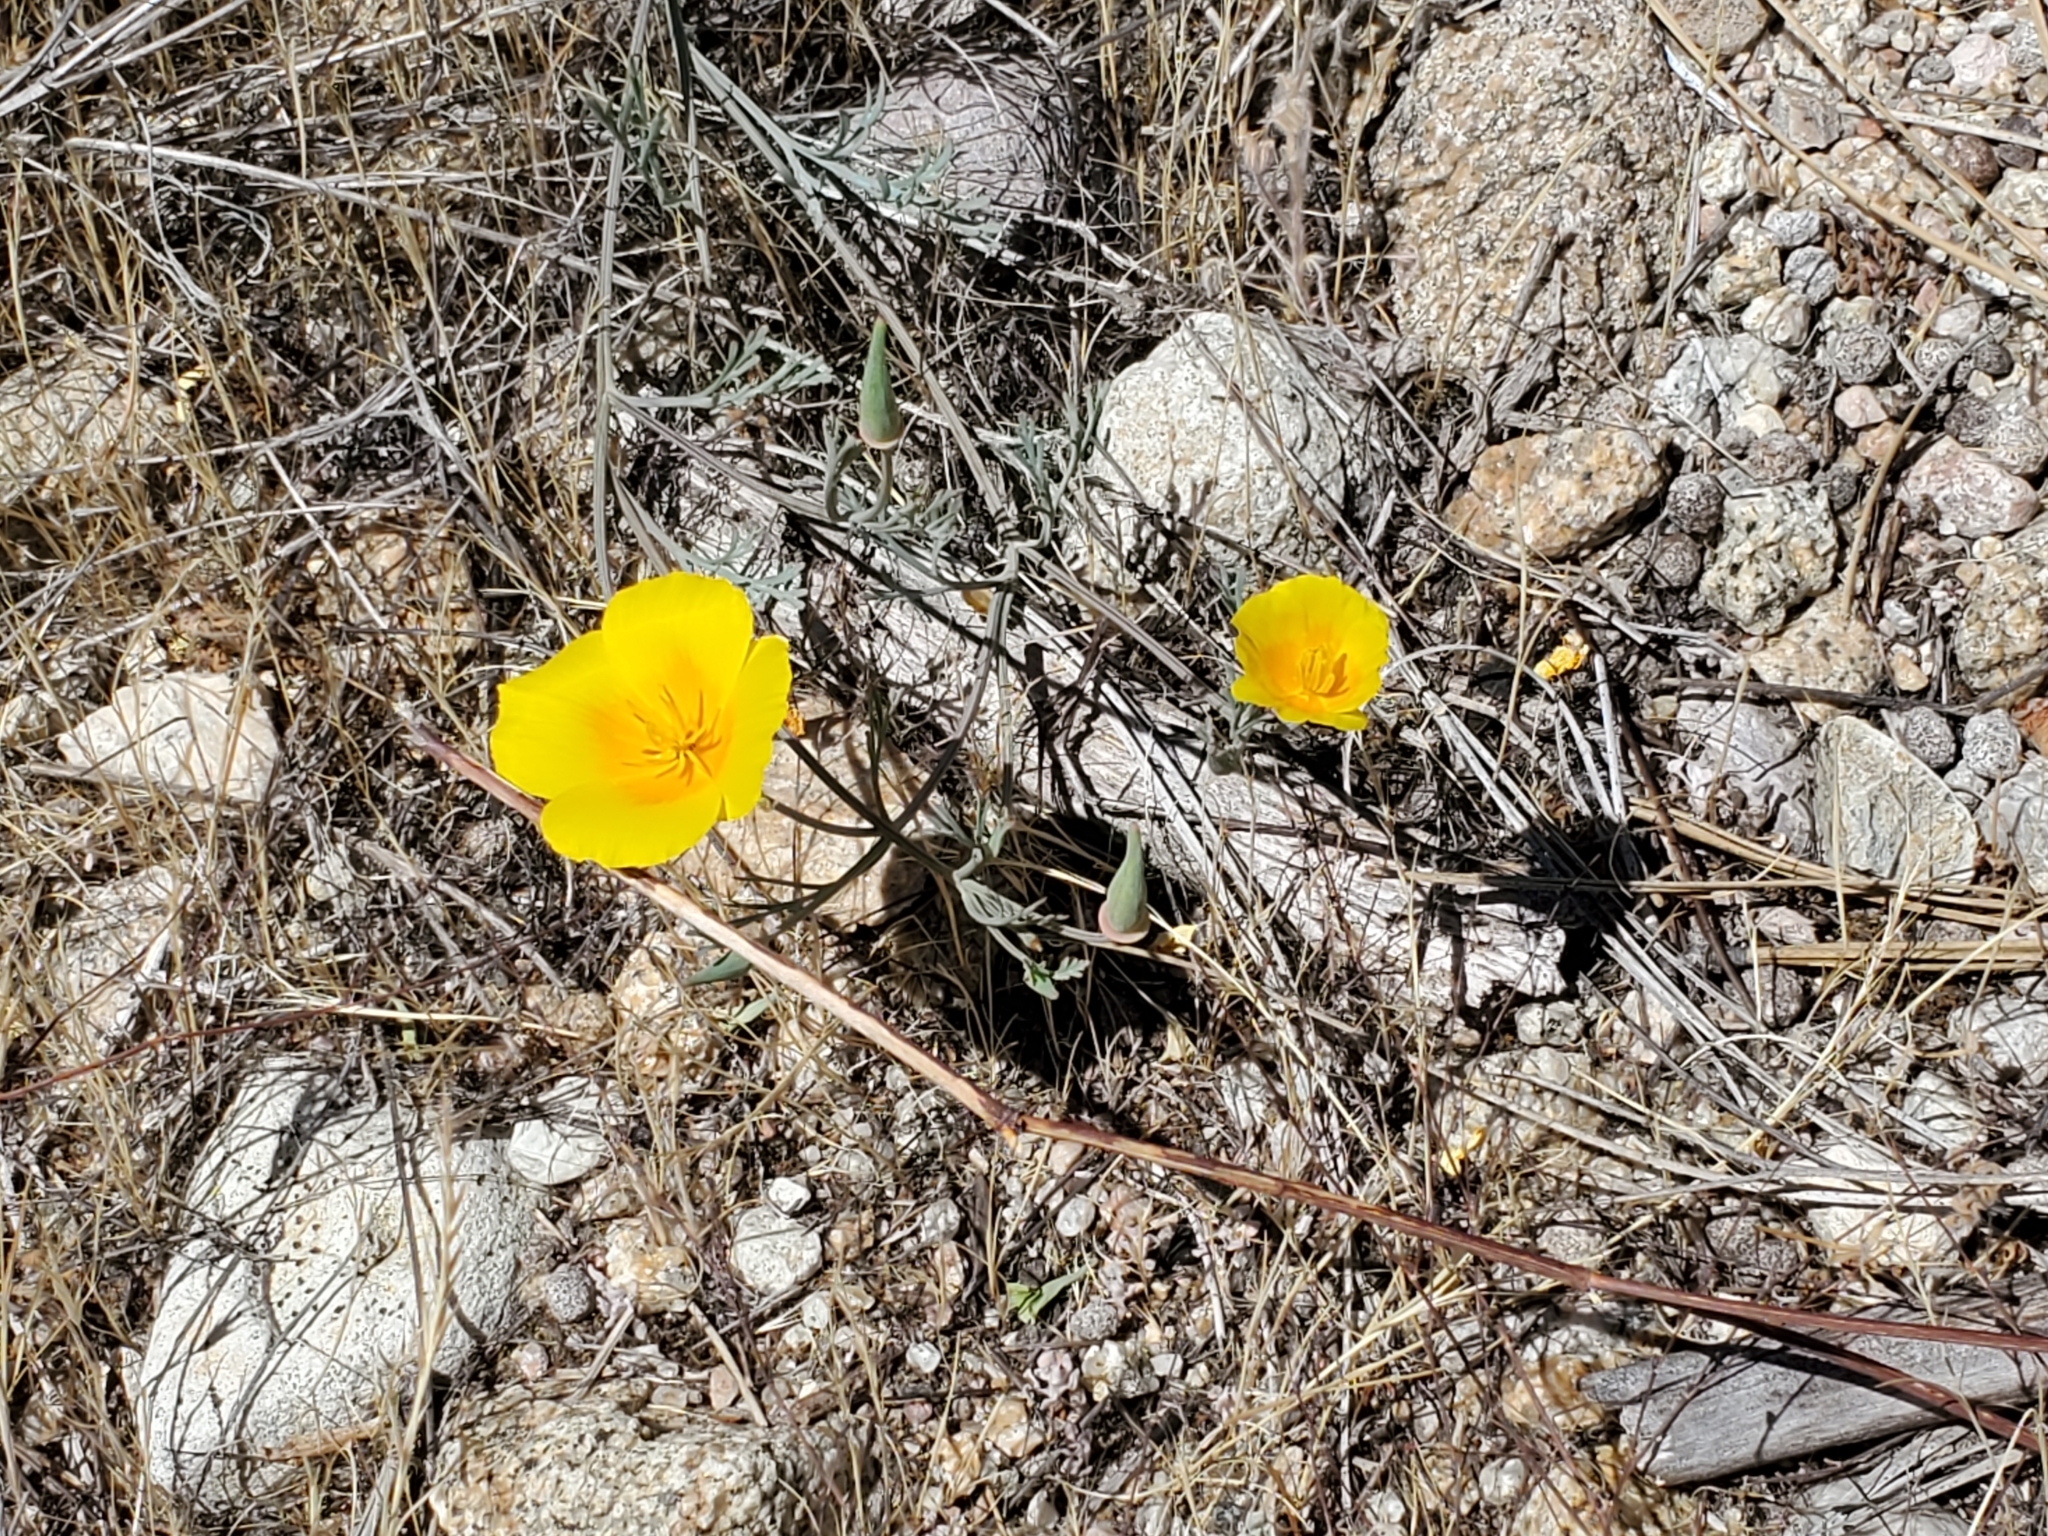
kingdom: Plantae
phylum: Tracheophyta
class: Magnoliopsida
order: Ranunculales
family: Papaveraceae
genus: Eschscholzia
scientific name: Eschscholzia californica
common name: California poppy
